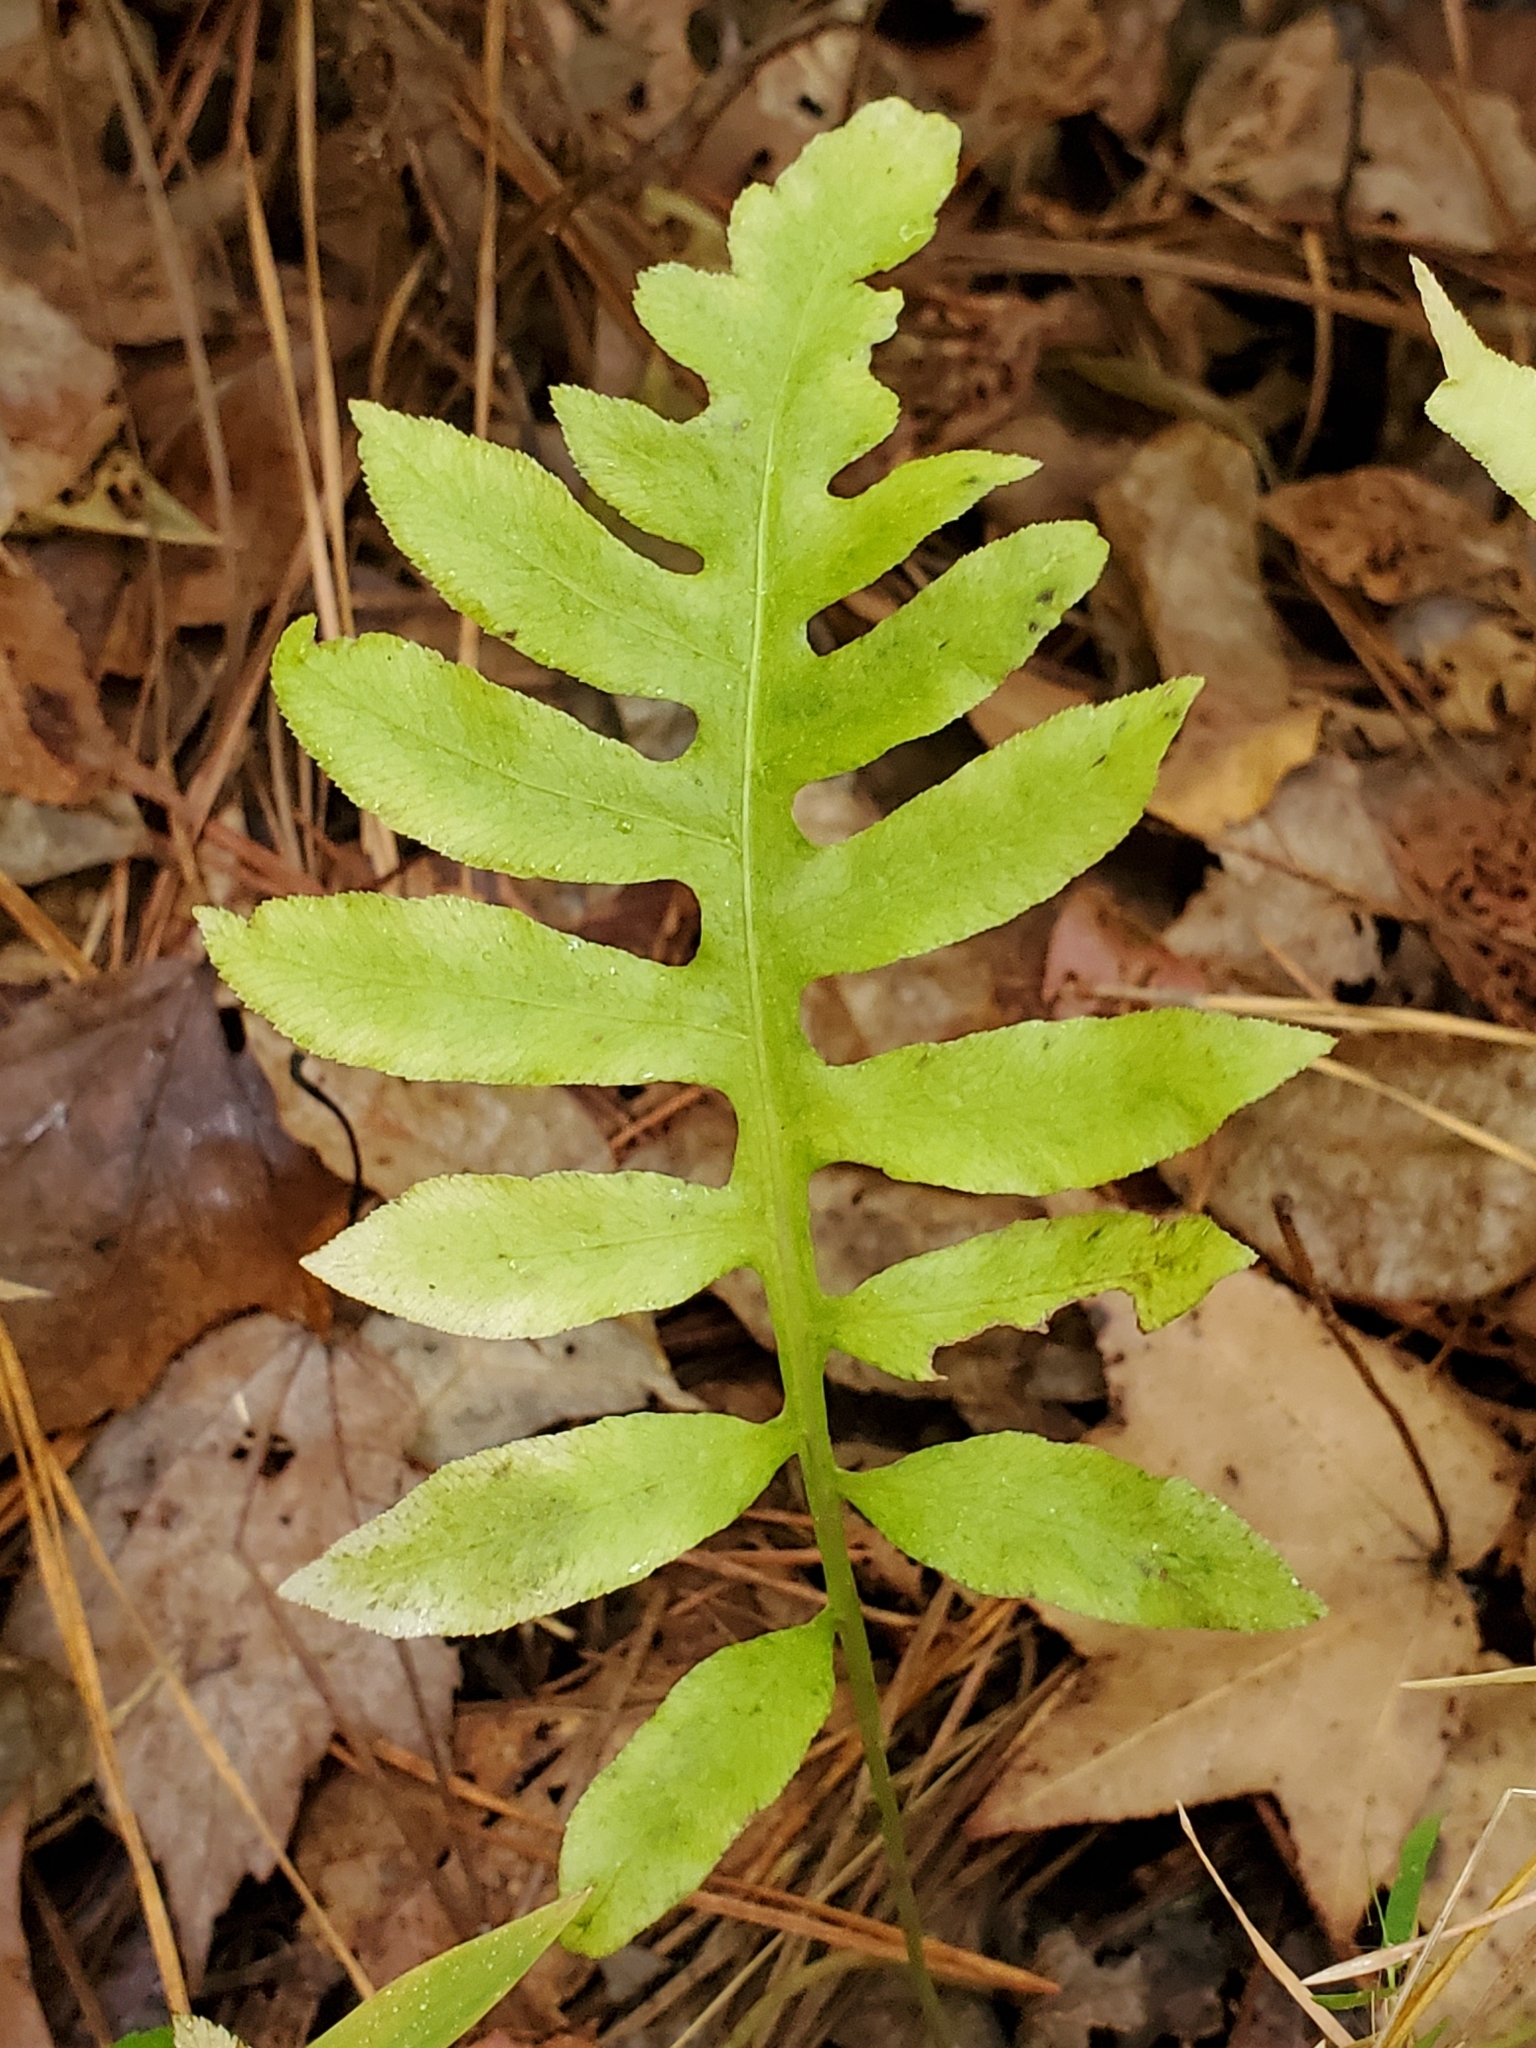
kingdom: Plantae
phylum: Tracheophyta
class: Polypodiopsida
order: Polypodiales
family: Blechnaceae
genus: Lorinseria
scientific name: Lorinseria areolata
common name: Dwarf chain fern
